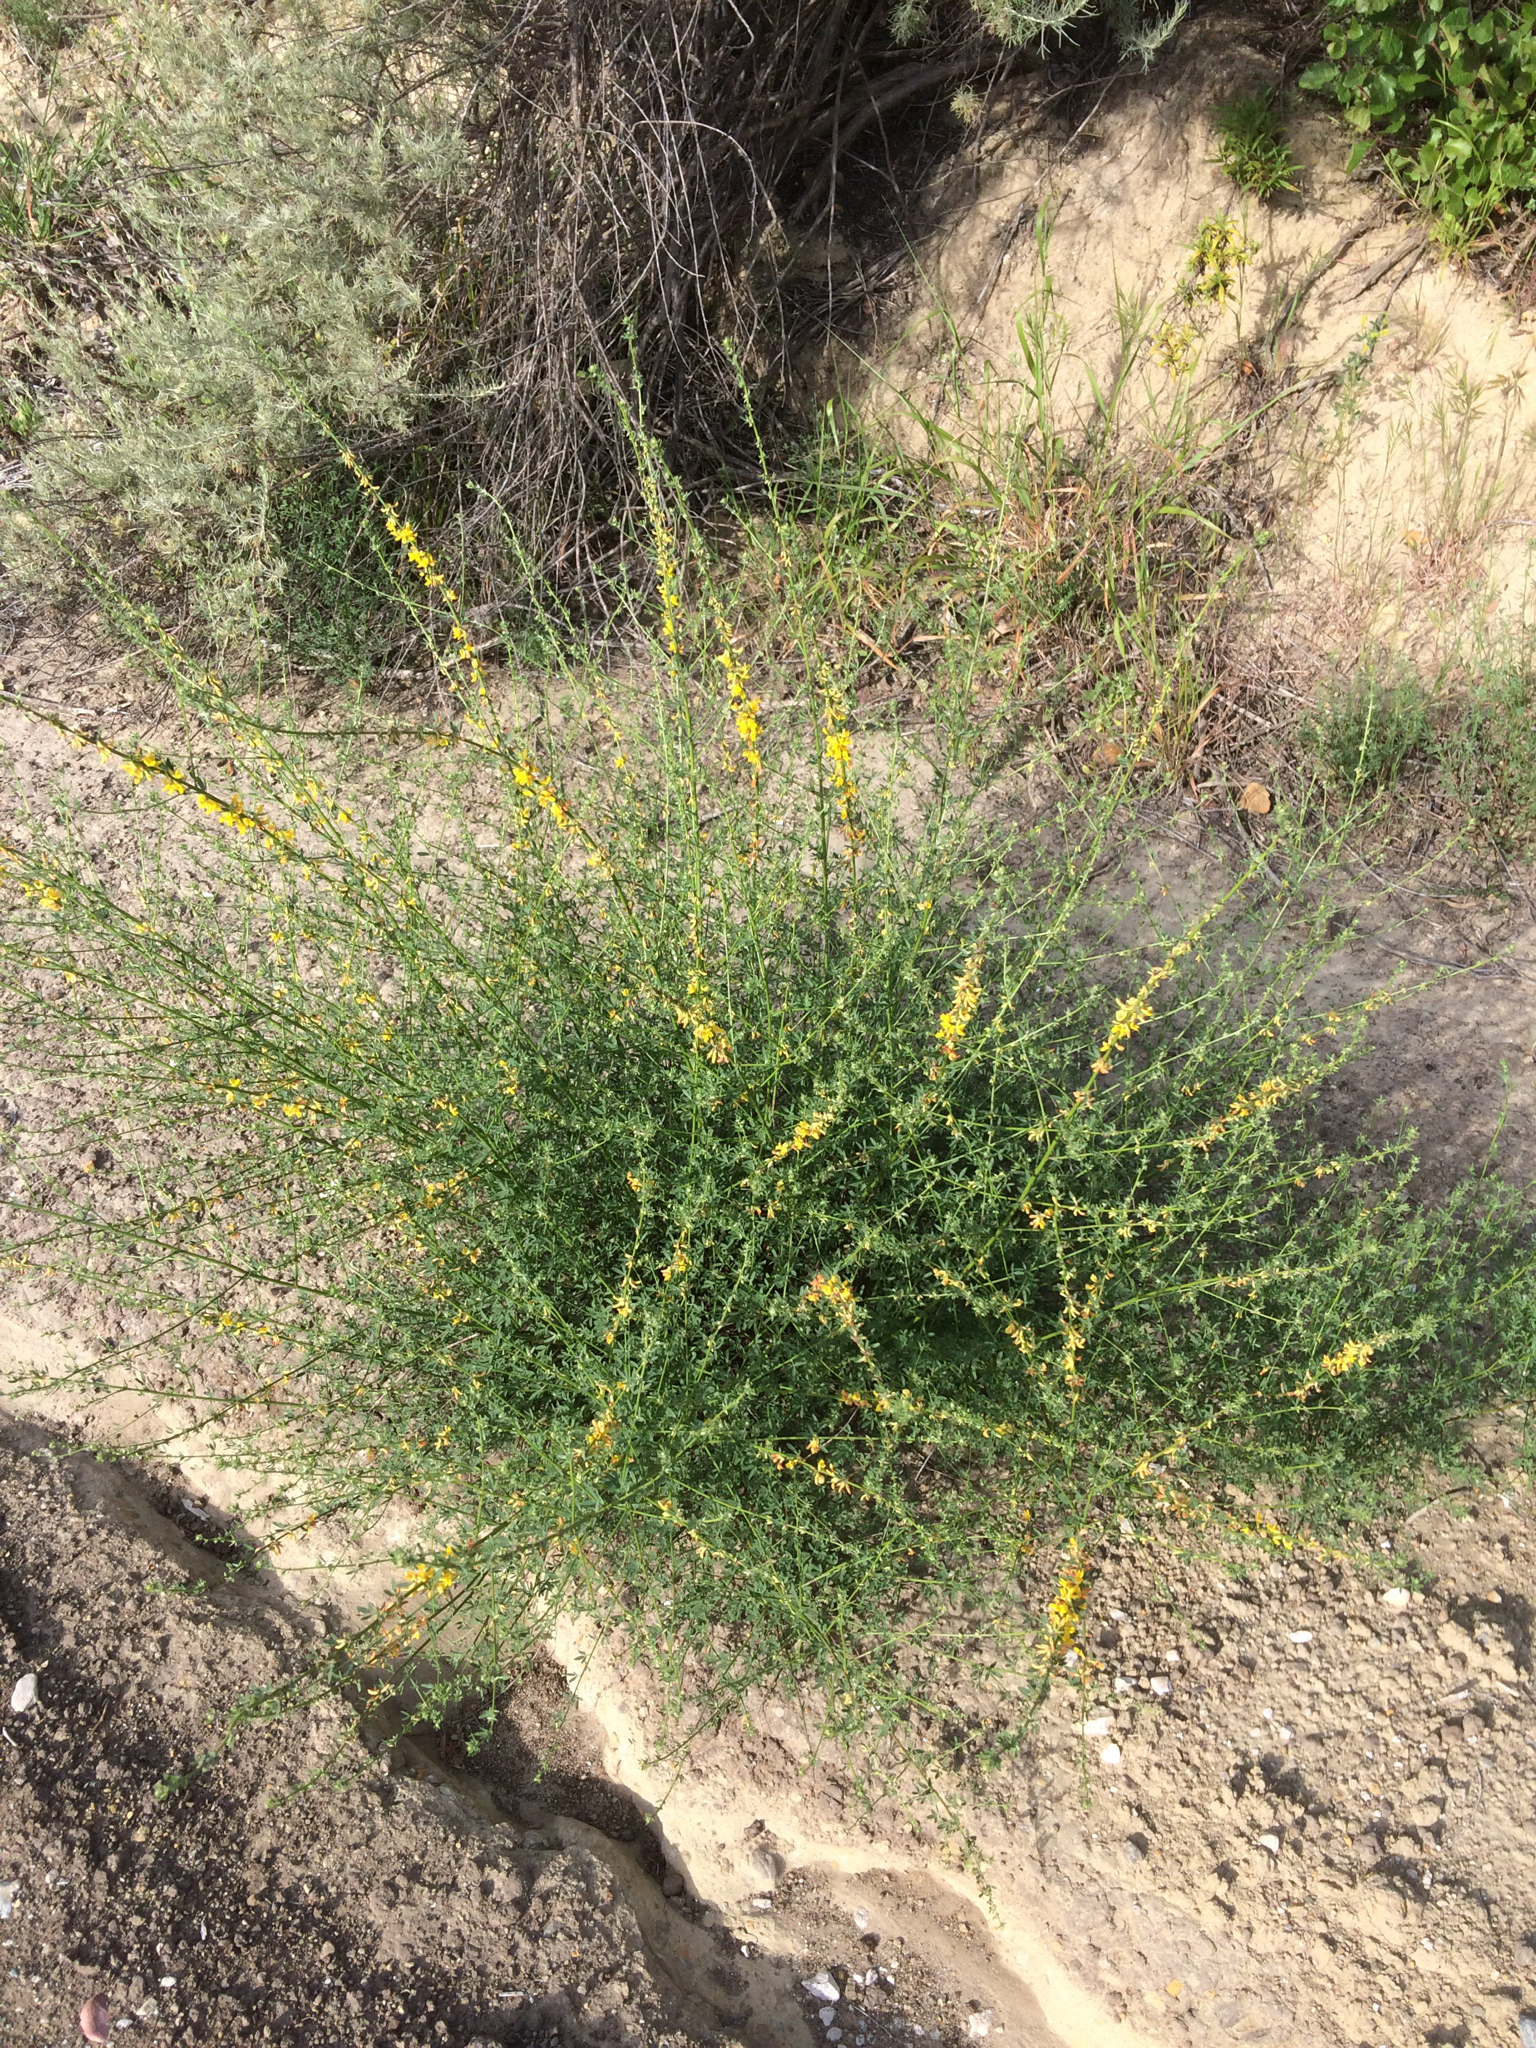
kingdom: Plantae
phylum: Tracheophyta
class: Magnoliopsida
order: Fabales
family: Fabaceae
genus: Acmispon
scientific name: Acmispon glaber
